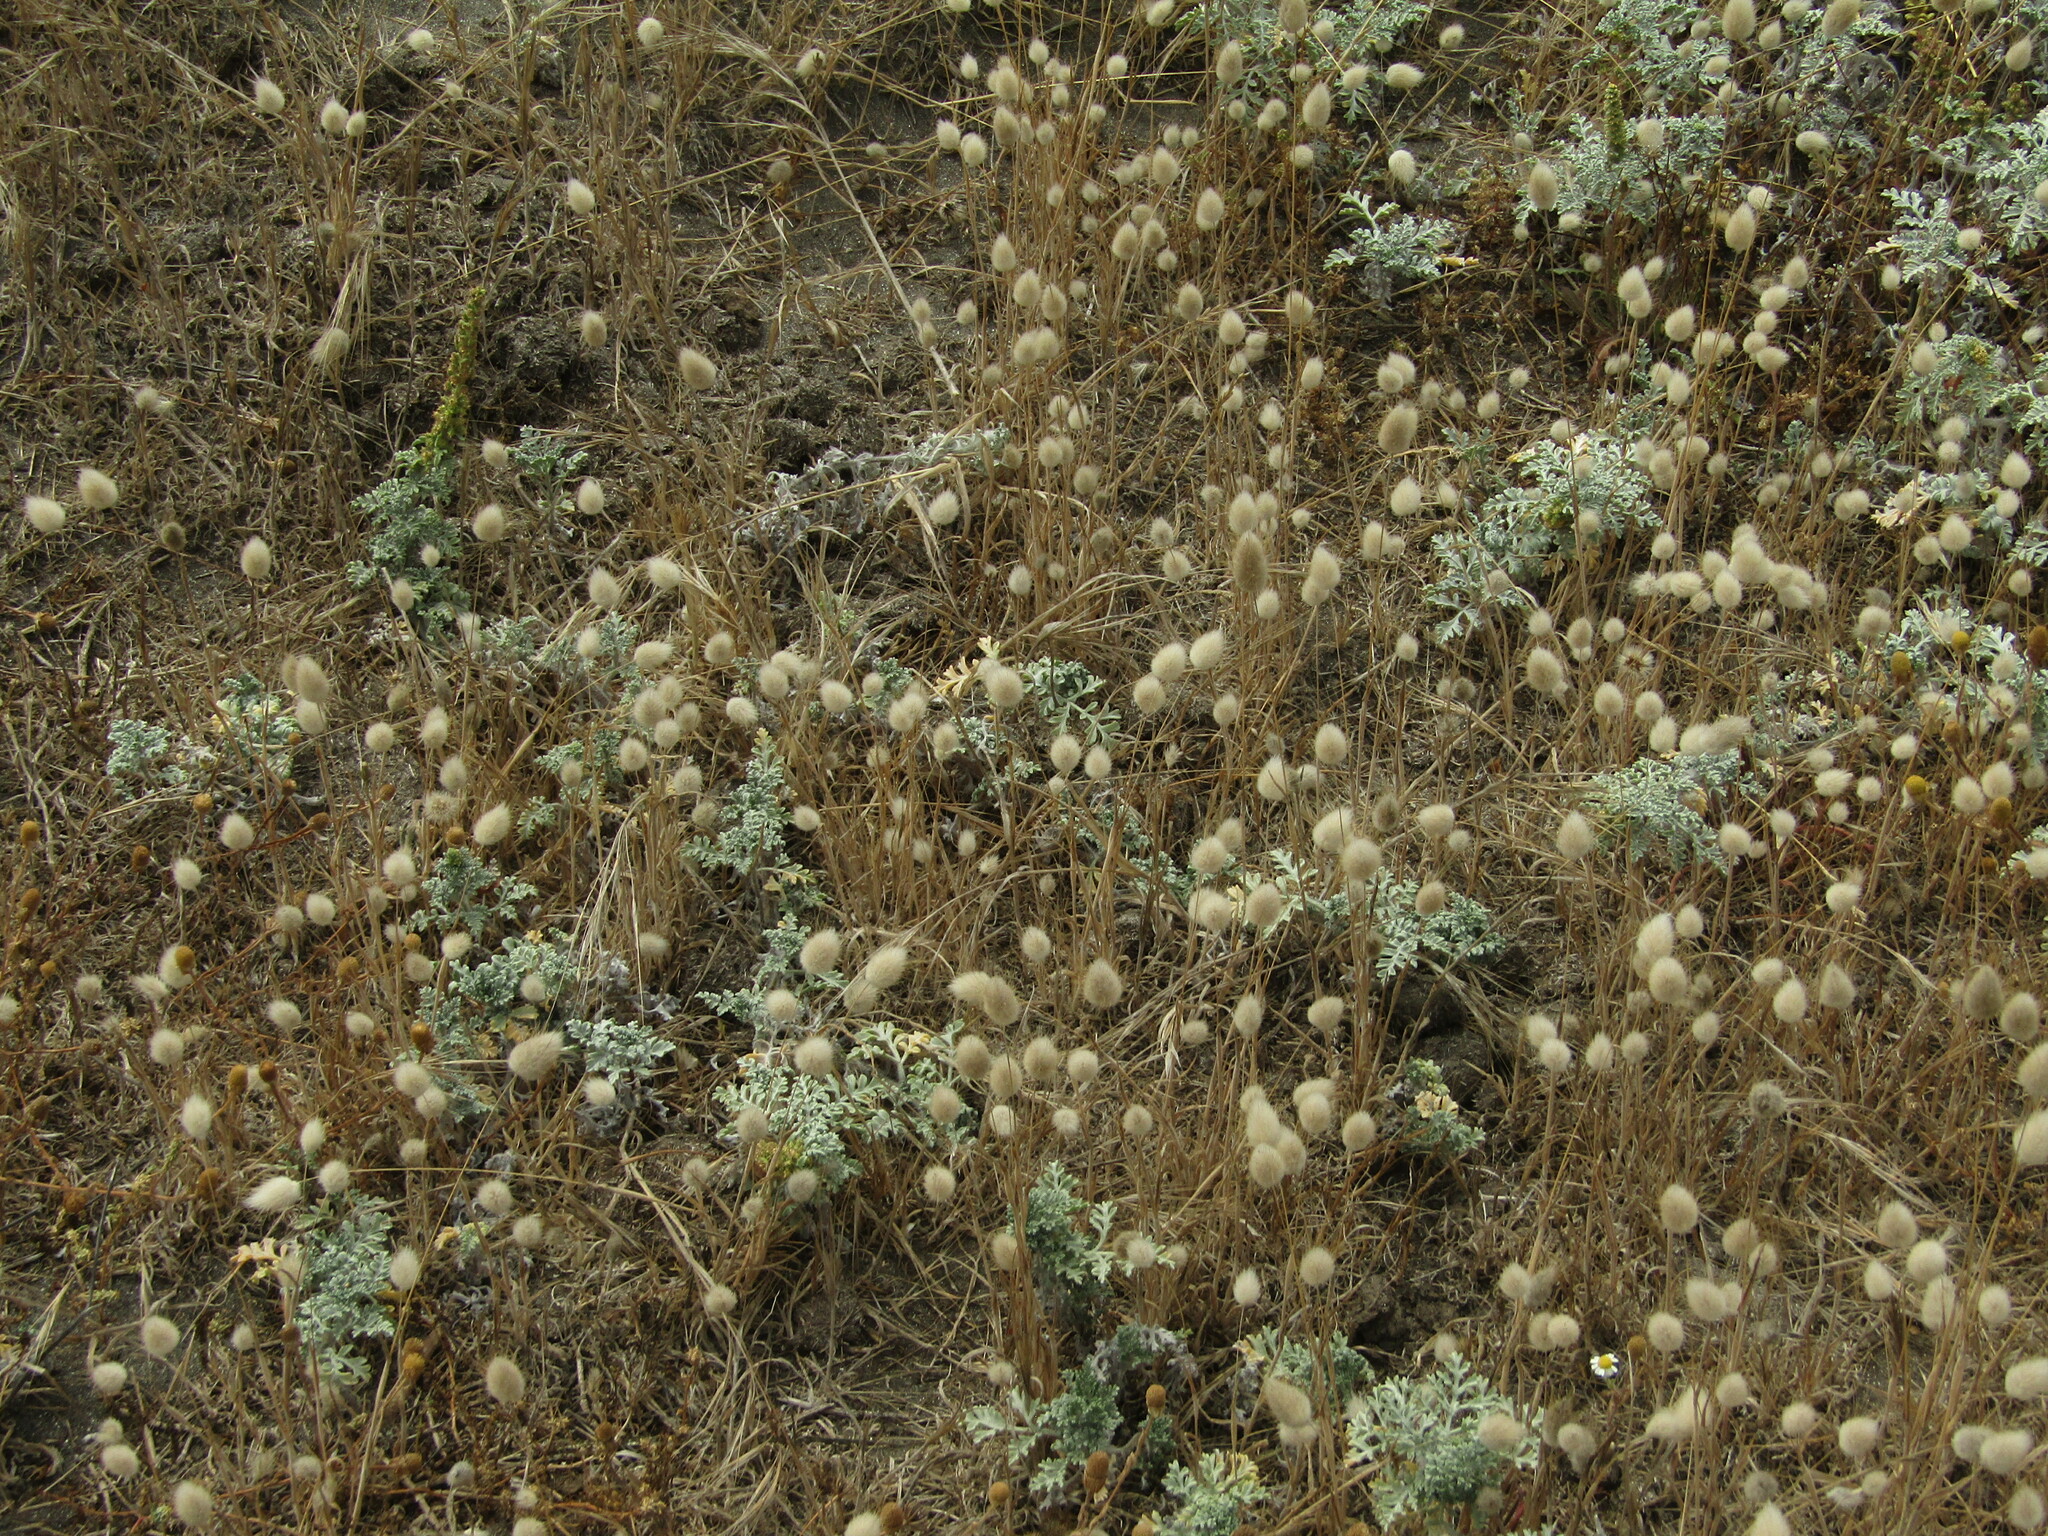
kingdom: Plantae
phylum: Tracheophyta
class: Liliopsida
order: Poales
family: Poaceae
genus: Lagurus
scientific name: Lagurus ovatus
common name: Hare's-tail
